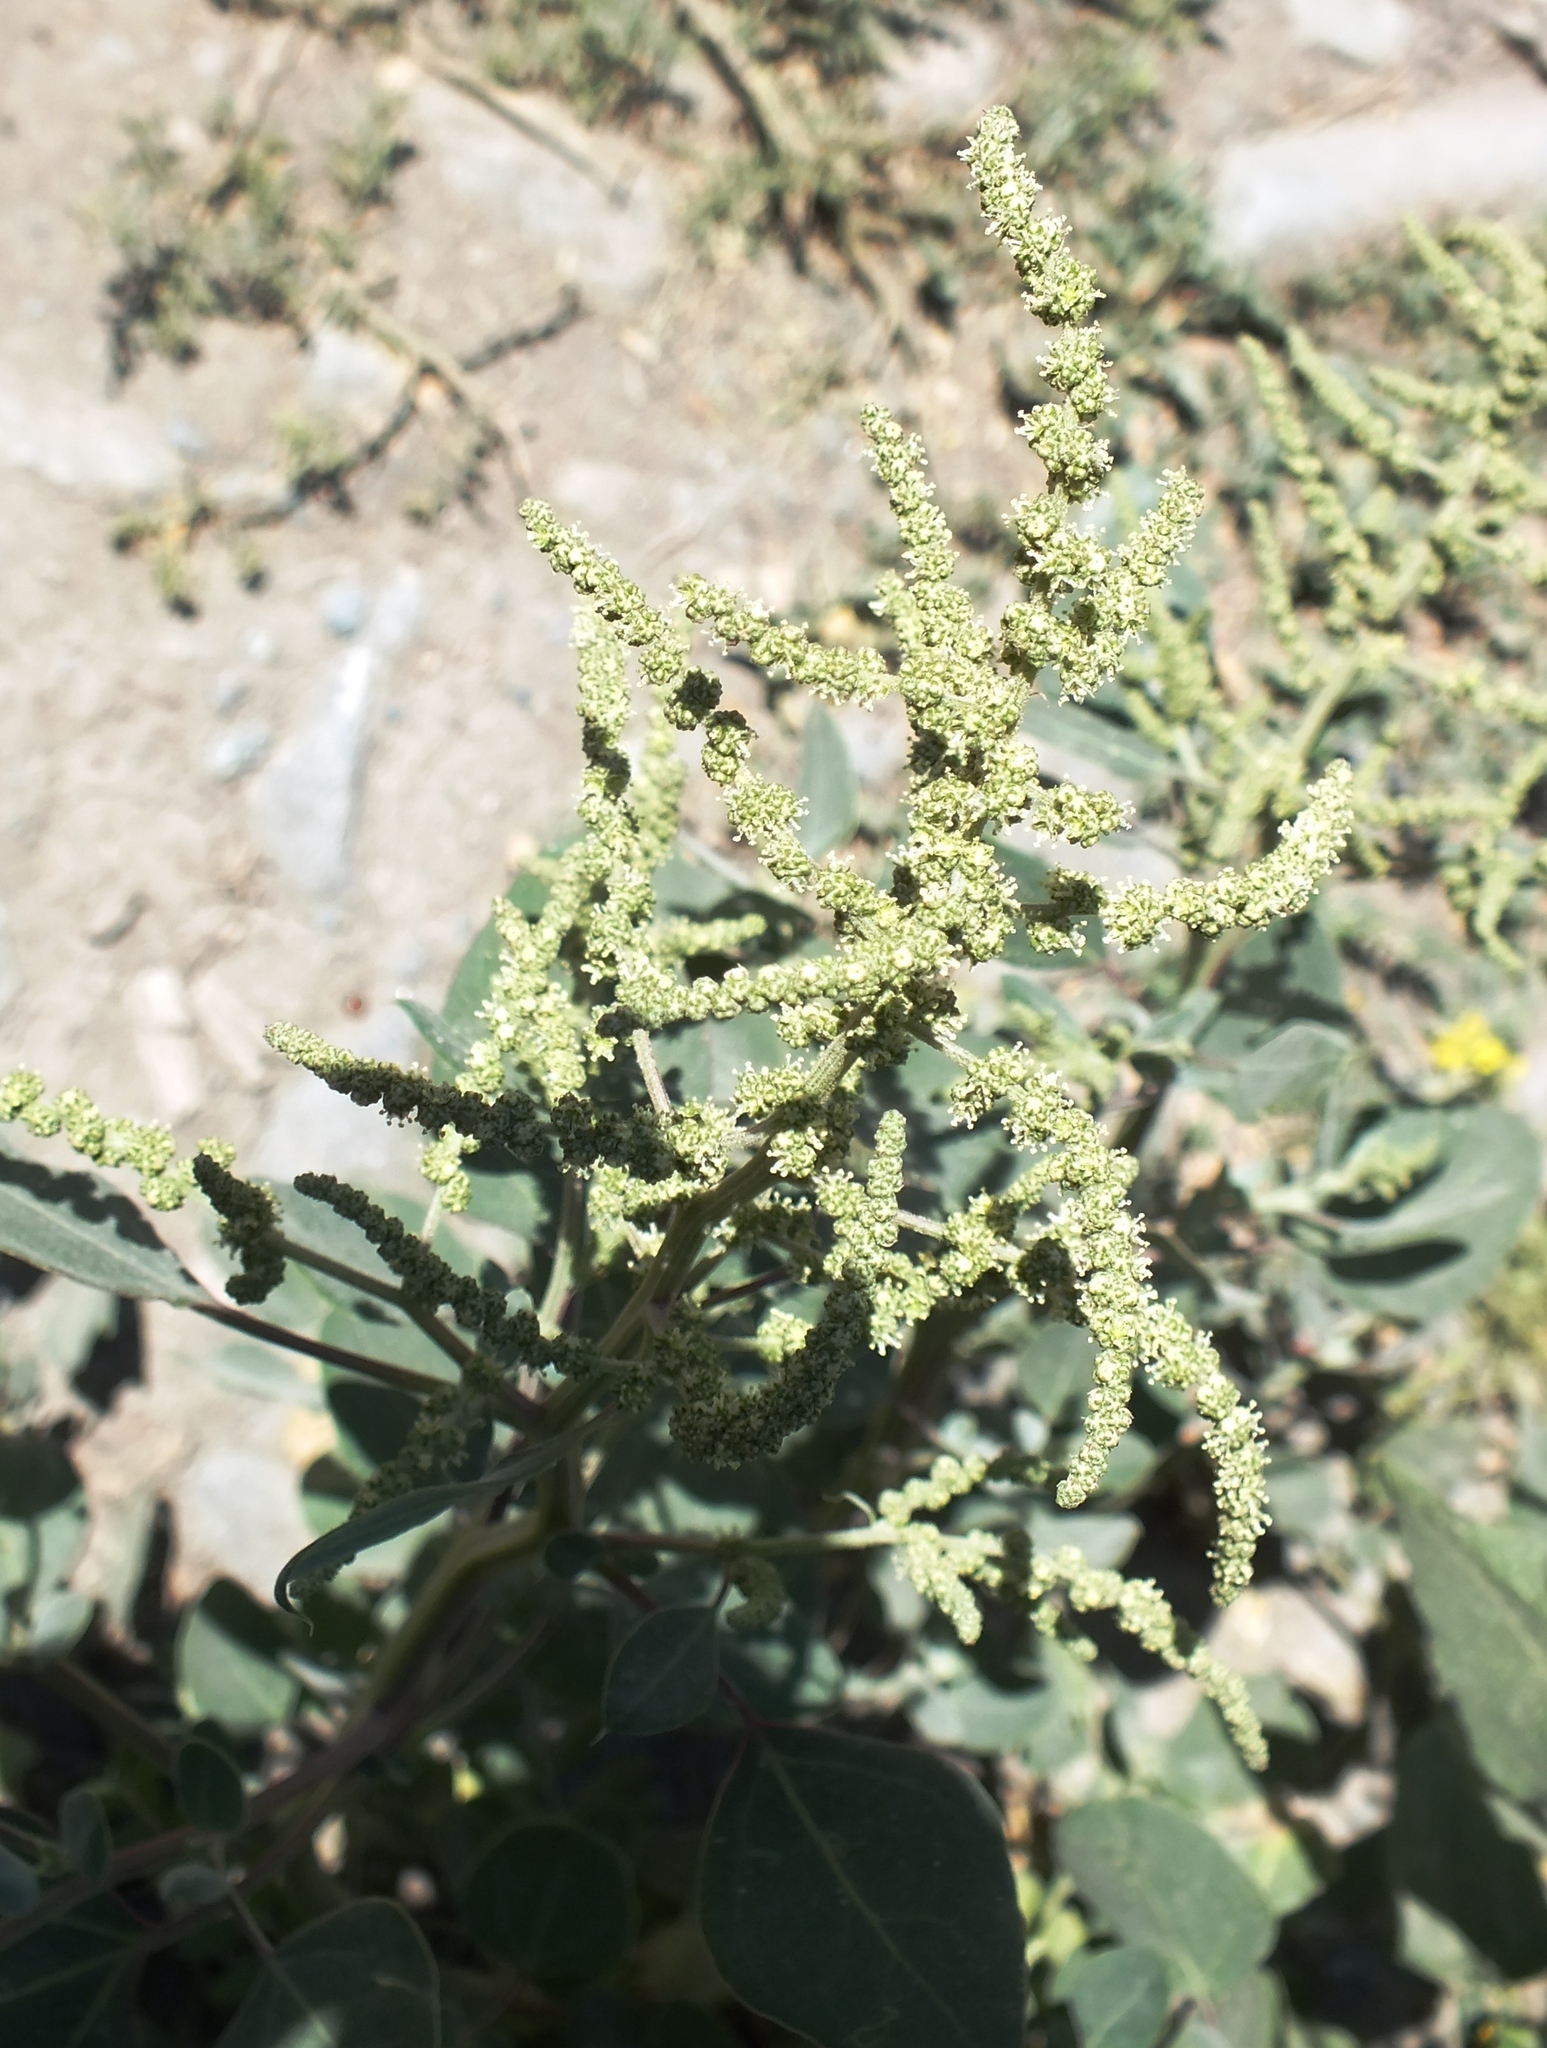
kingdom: Plantae
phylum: Tracheophyta
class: Magnoliopsida
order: Caryophyllales
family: Amaranthaceae
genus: Chenopodium
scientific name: Chenopodium acuminatum
